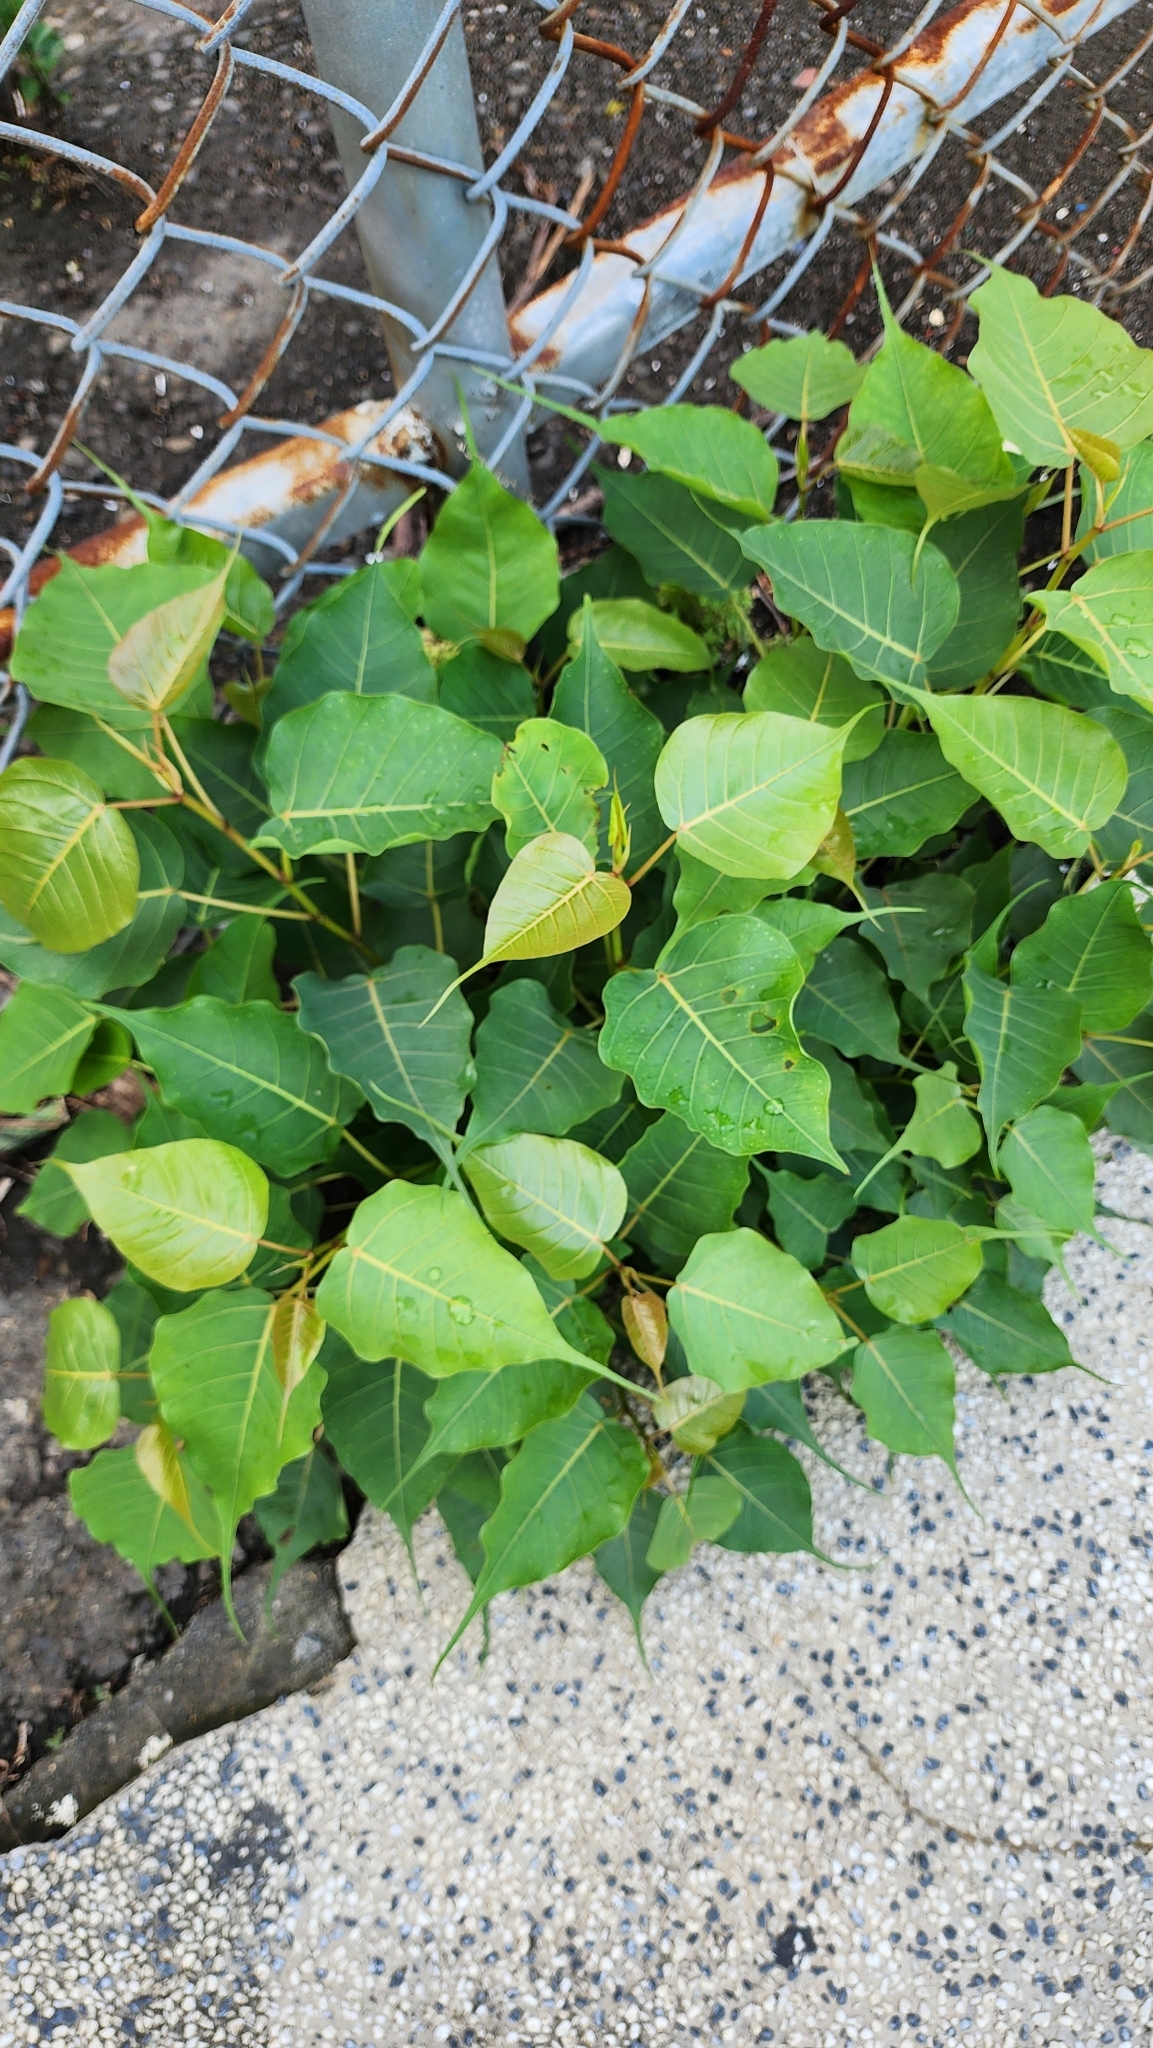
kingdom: Plantae
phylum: Tracheophyta
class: Magnoliopsida
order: Rosales
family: Moraceae
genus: Ficus
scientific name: Ficus religiosa
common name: Bodhi tree
